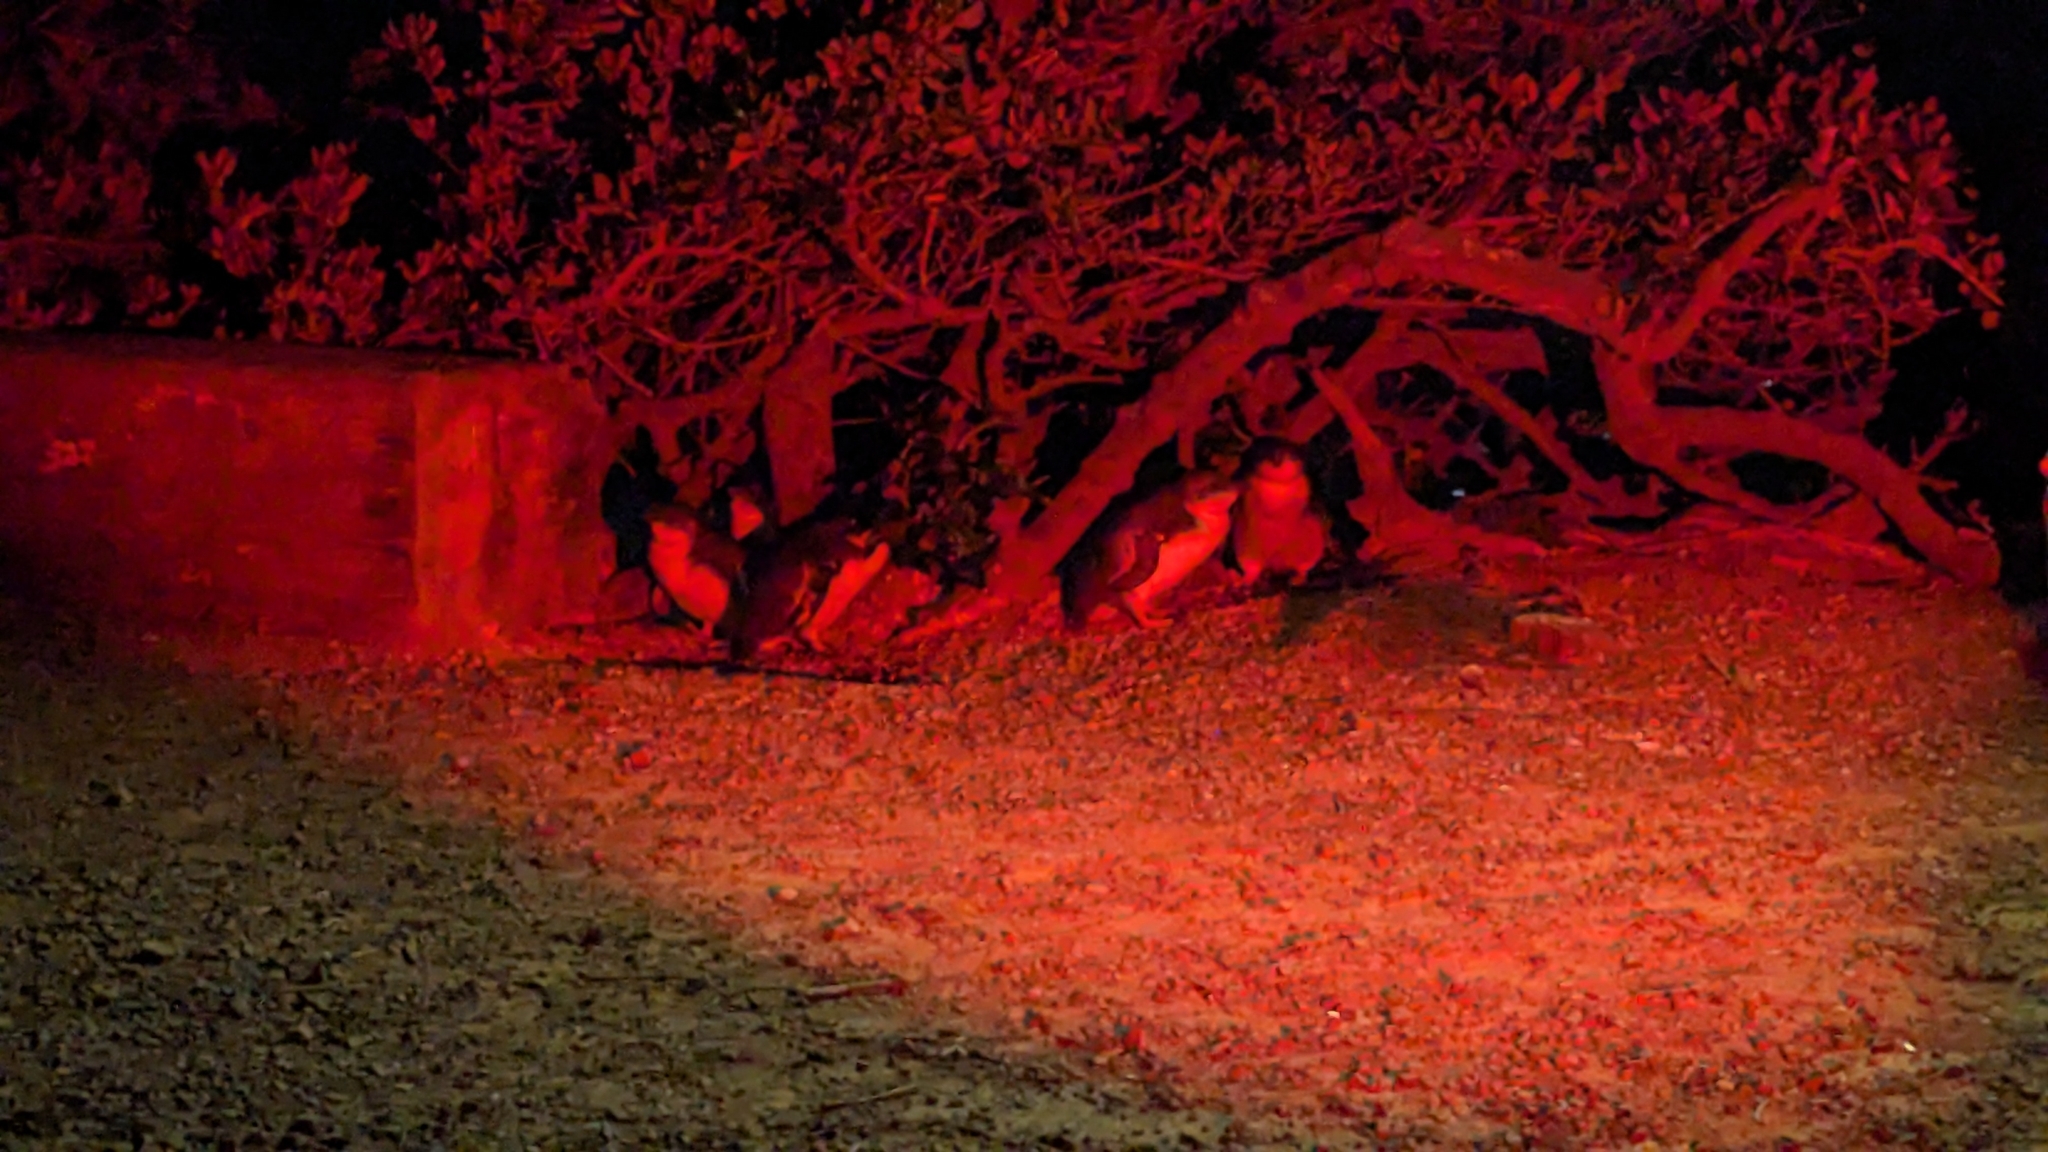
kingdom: Animalia
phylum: Chordata
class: Aves
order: Sphenisciformes
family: Spheniscidae
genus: Eudyptula
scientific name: Eudyptula minor
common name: Little penguin
